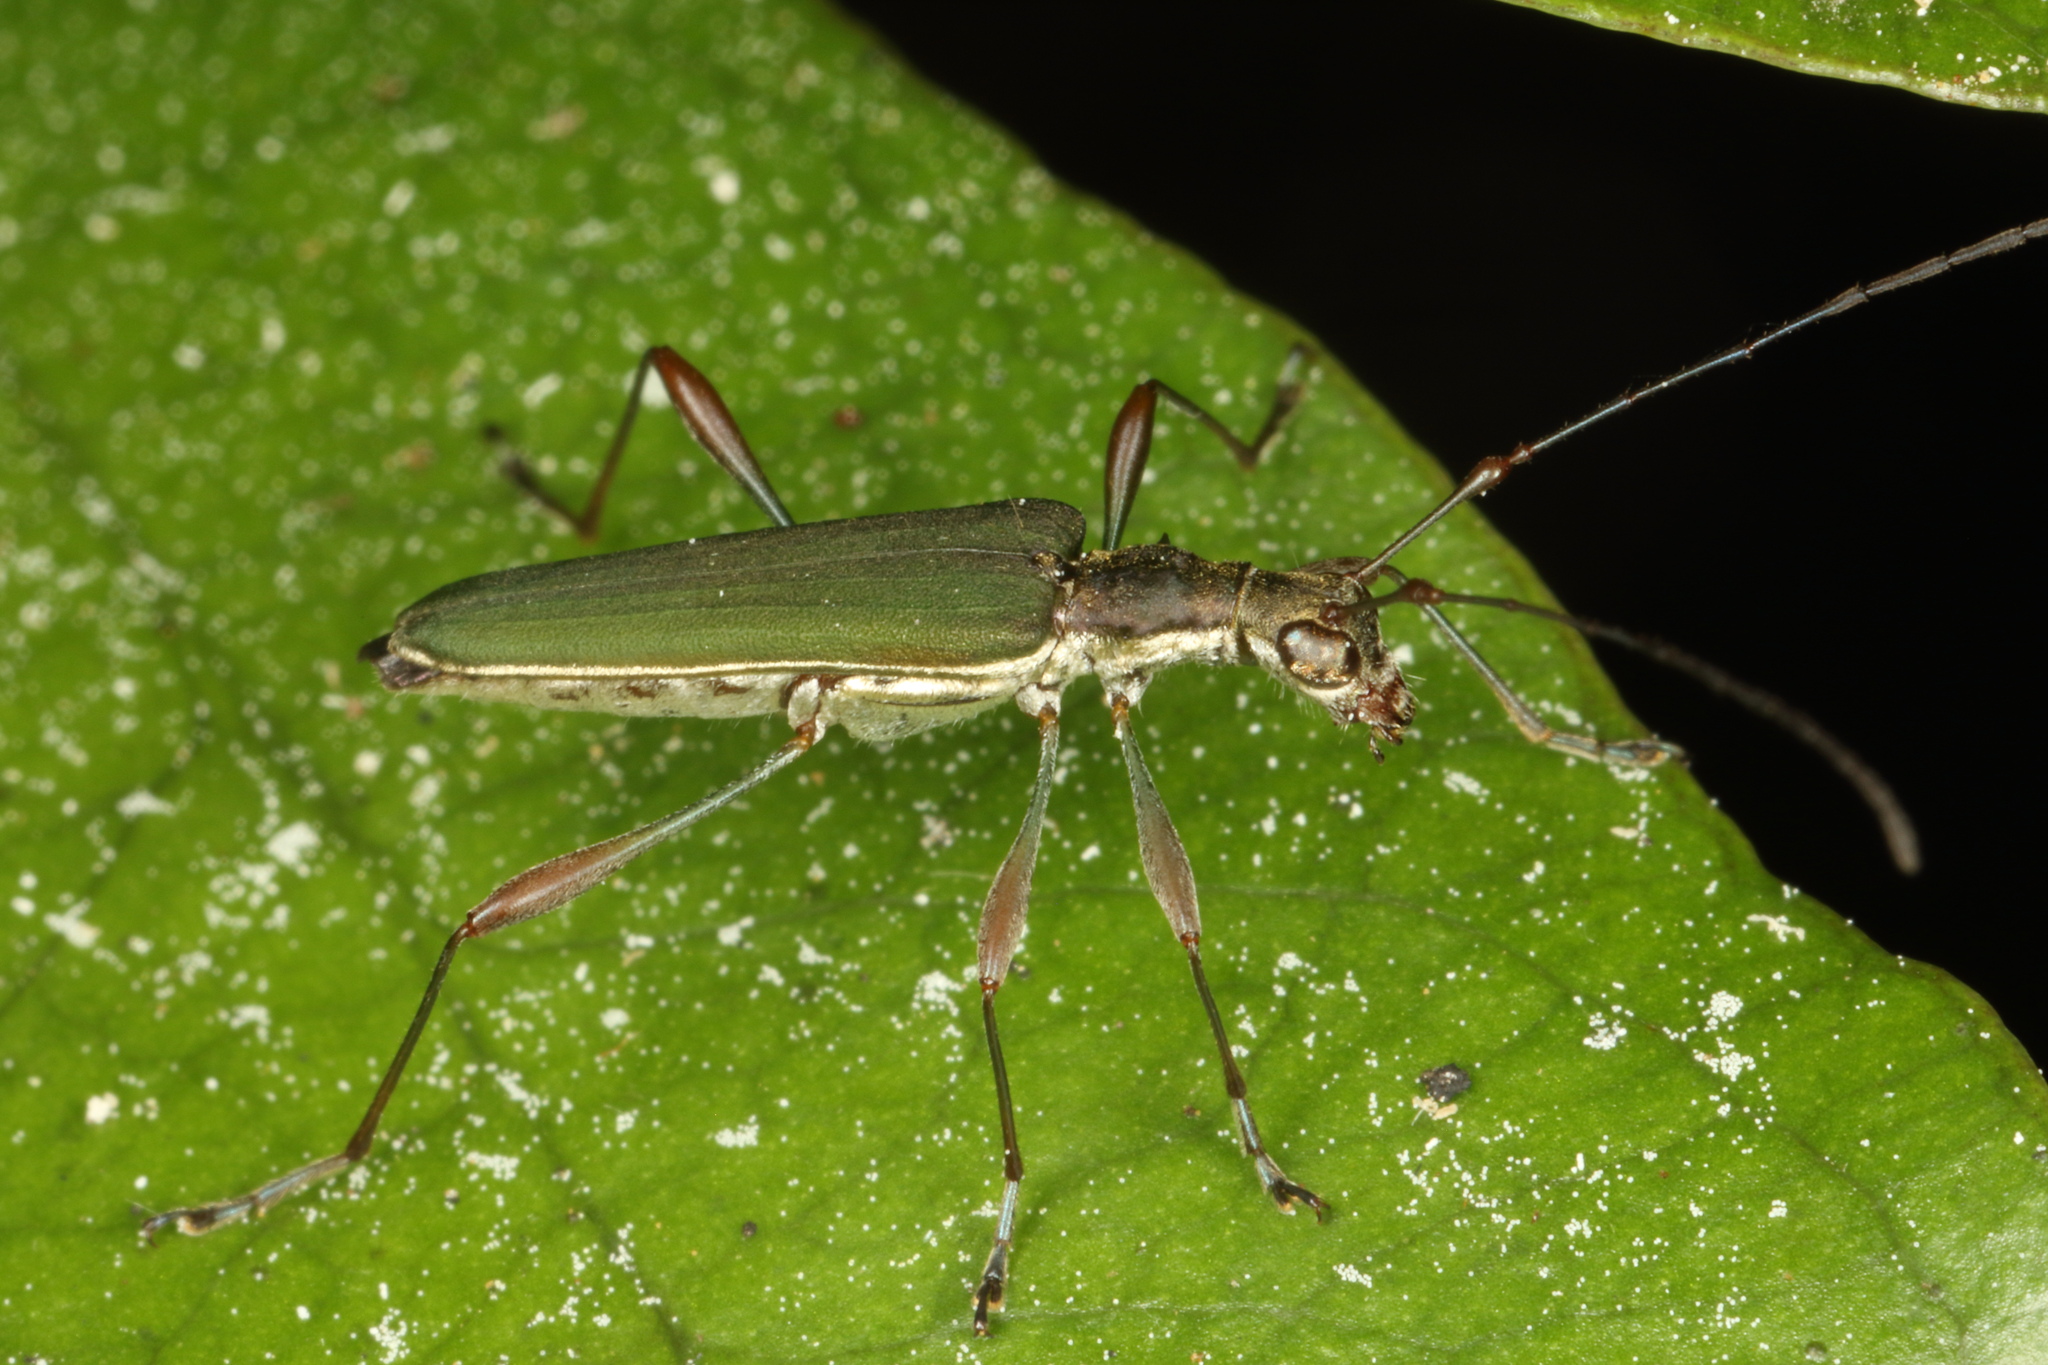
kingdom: Animalia
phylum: Arthropoda
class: Insecta
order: Coleoptera
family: Cerambycidae
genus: Calliprason
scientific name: Calliprason sinclairi
